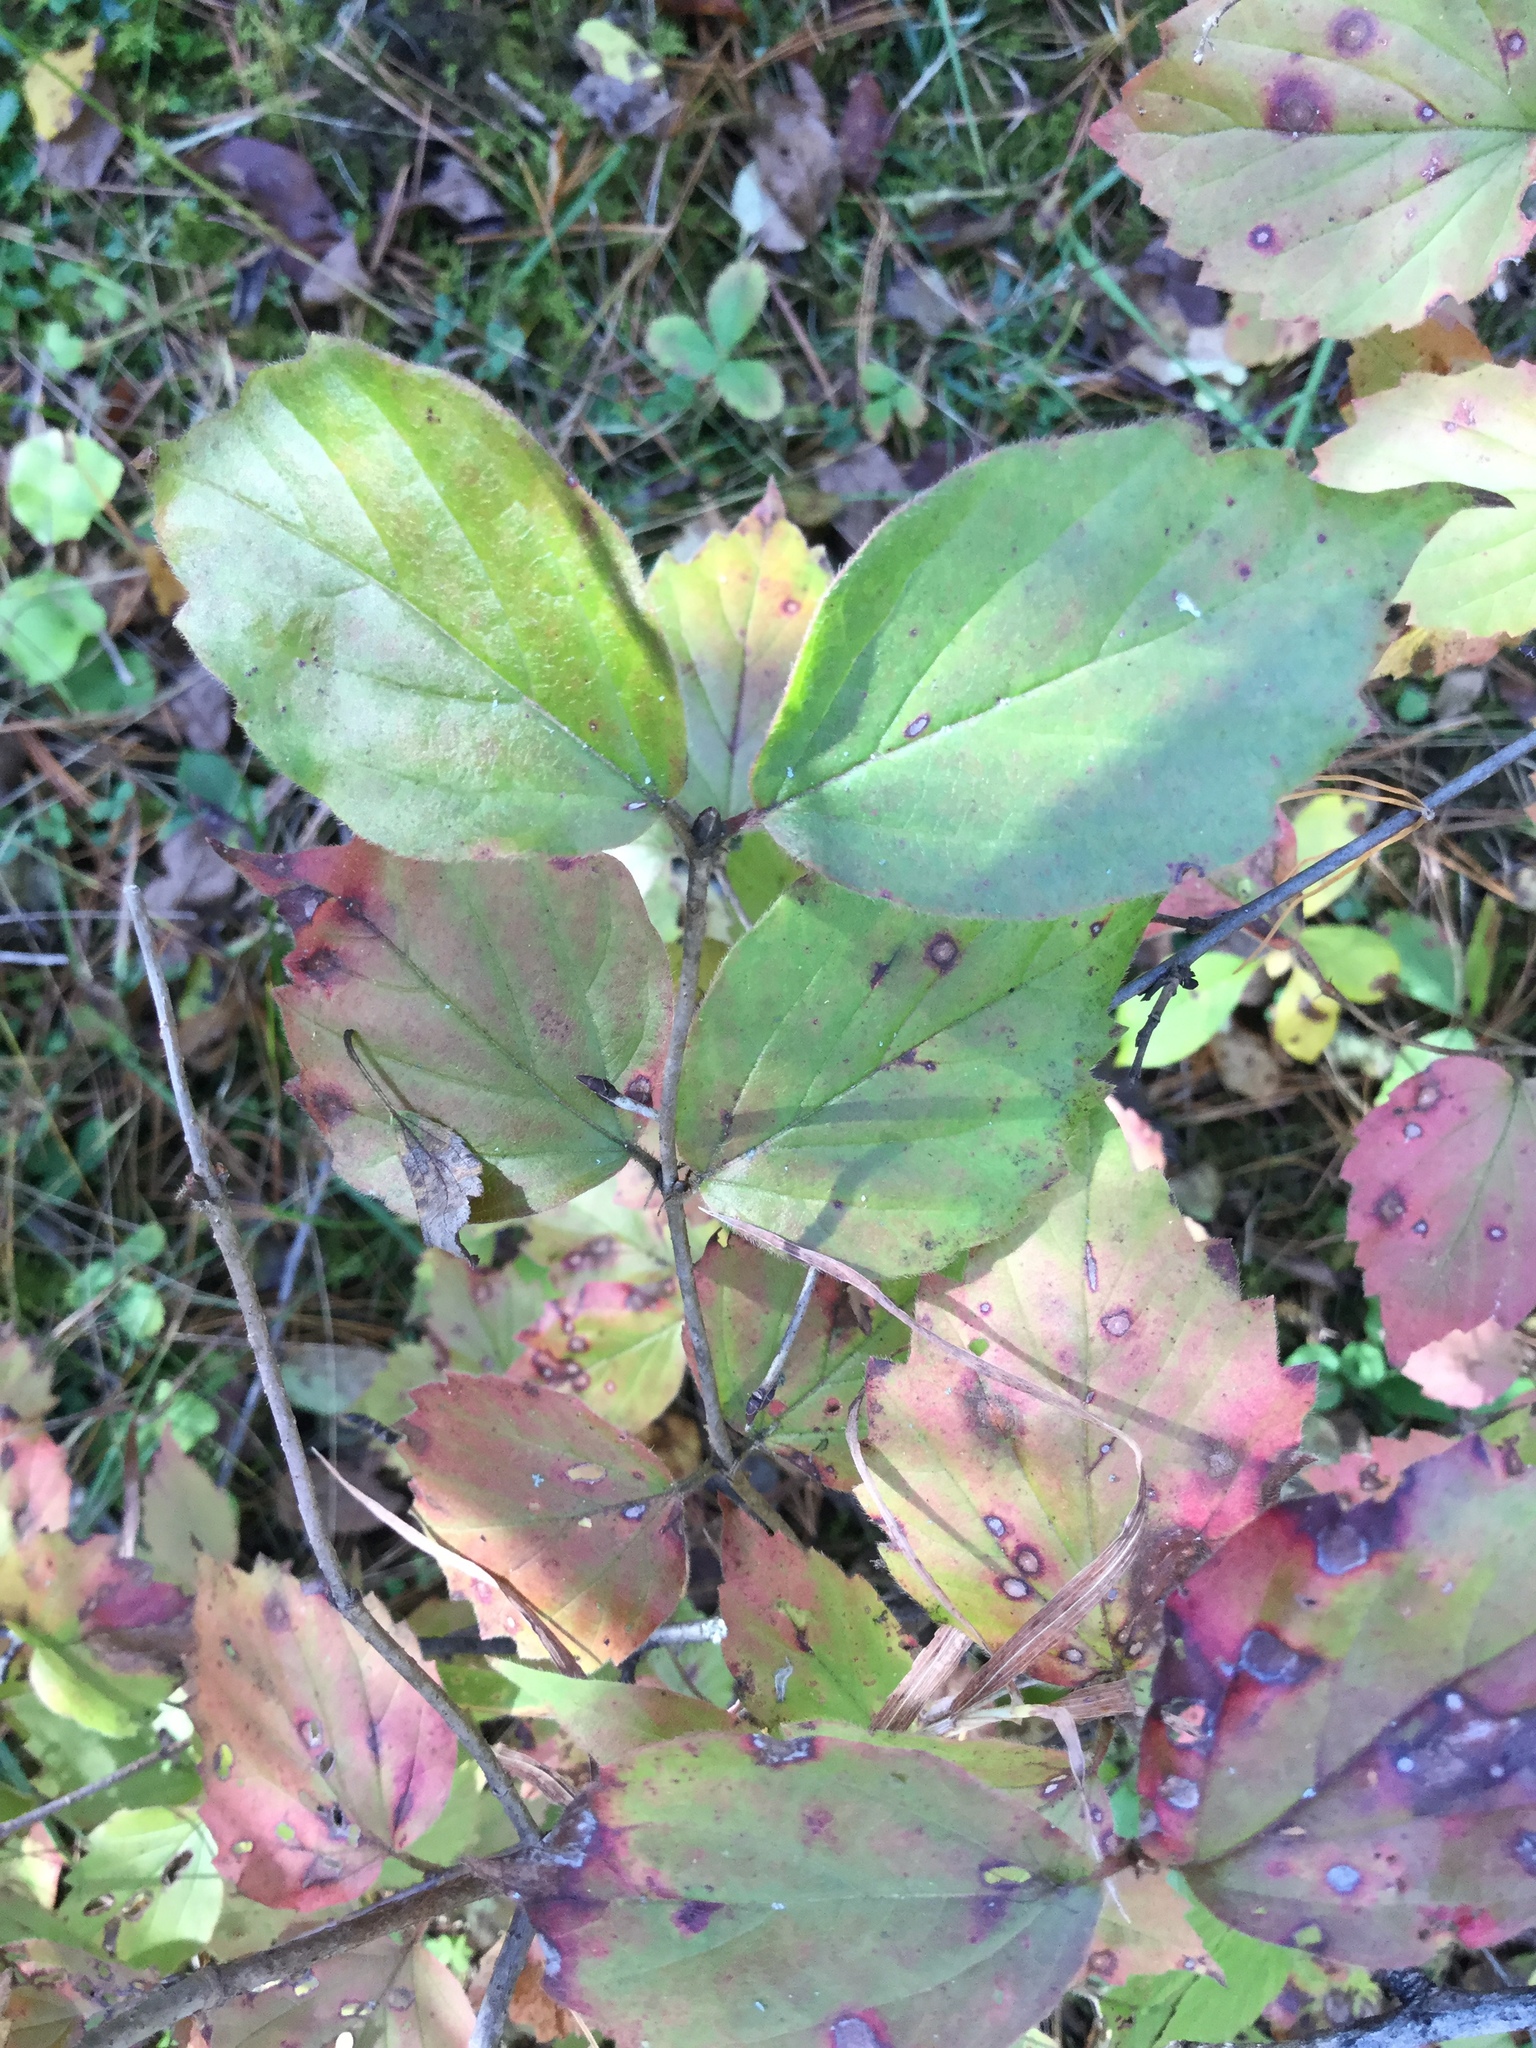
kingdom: Plantae
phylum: Tracheophyta
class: Magnoliopsida
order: Dipsacales
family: Viburnaceae
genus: Viburnum
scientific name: Viburnum rafinesqueanum
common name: Downy arrow-wood
